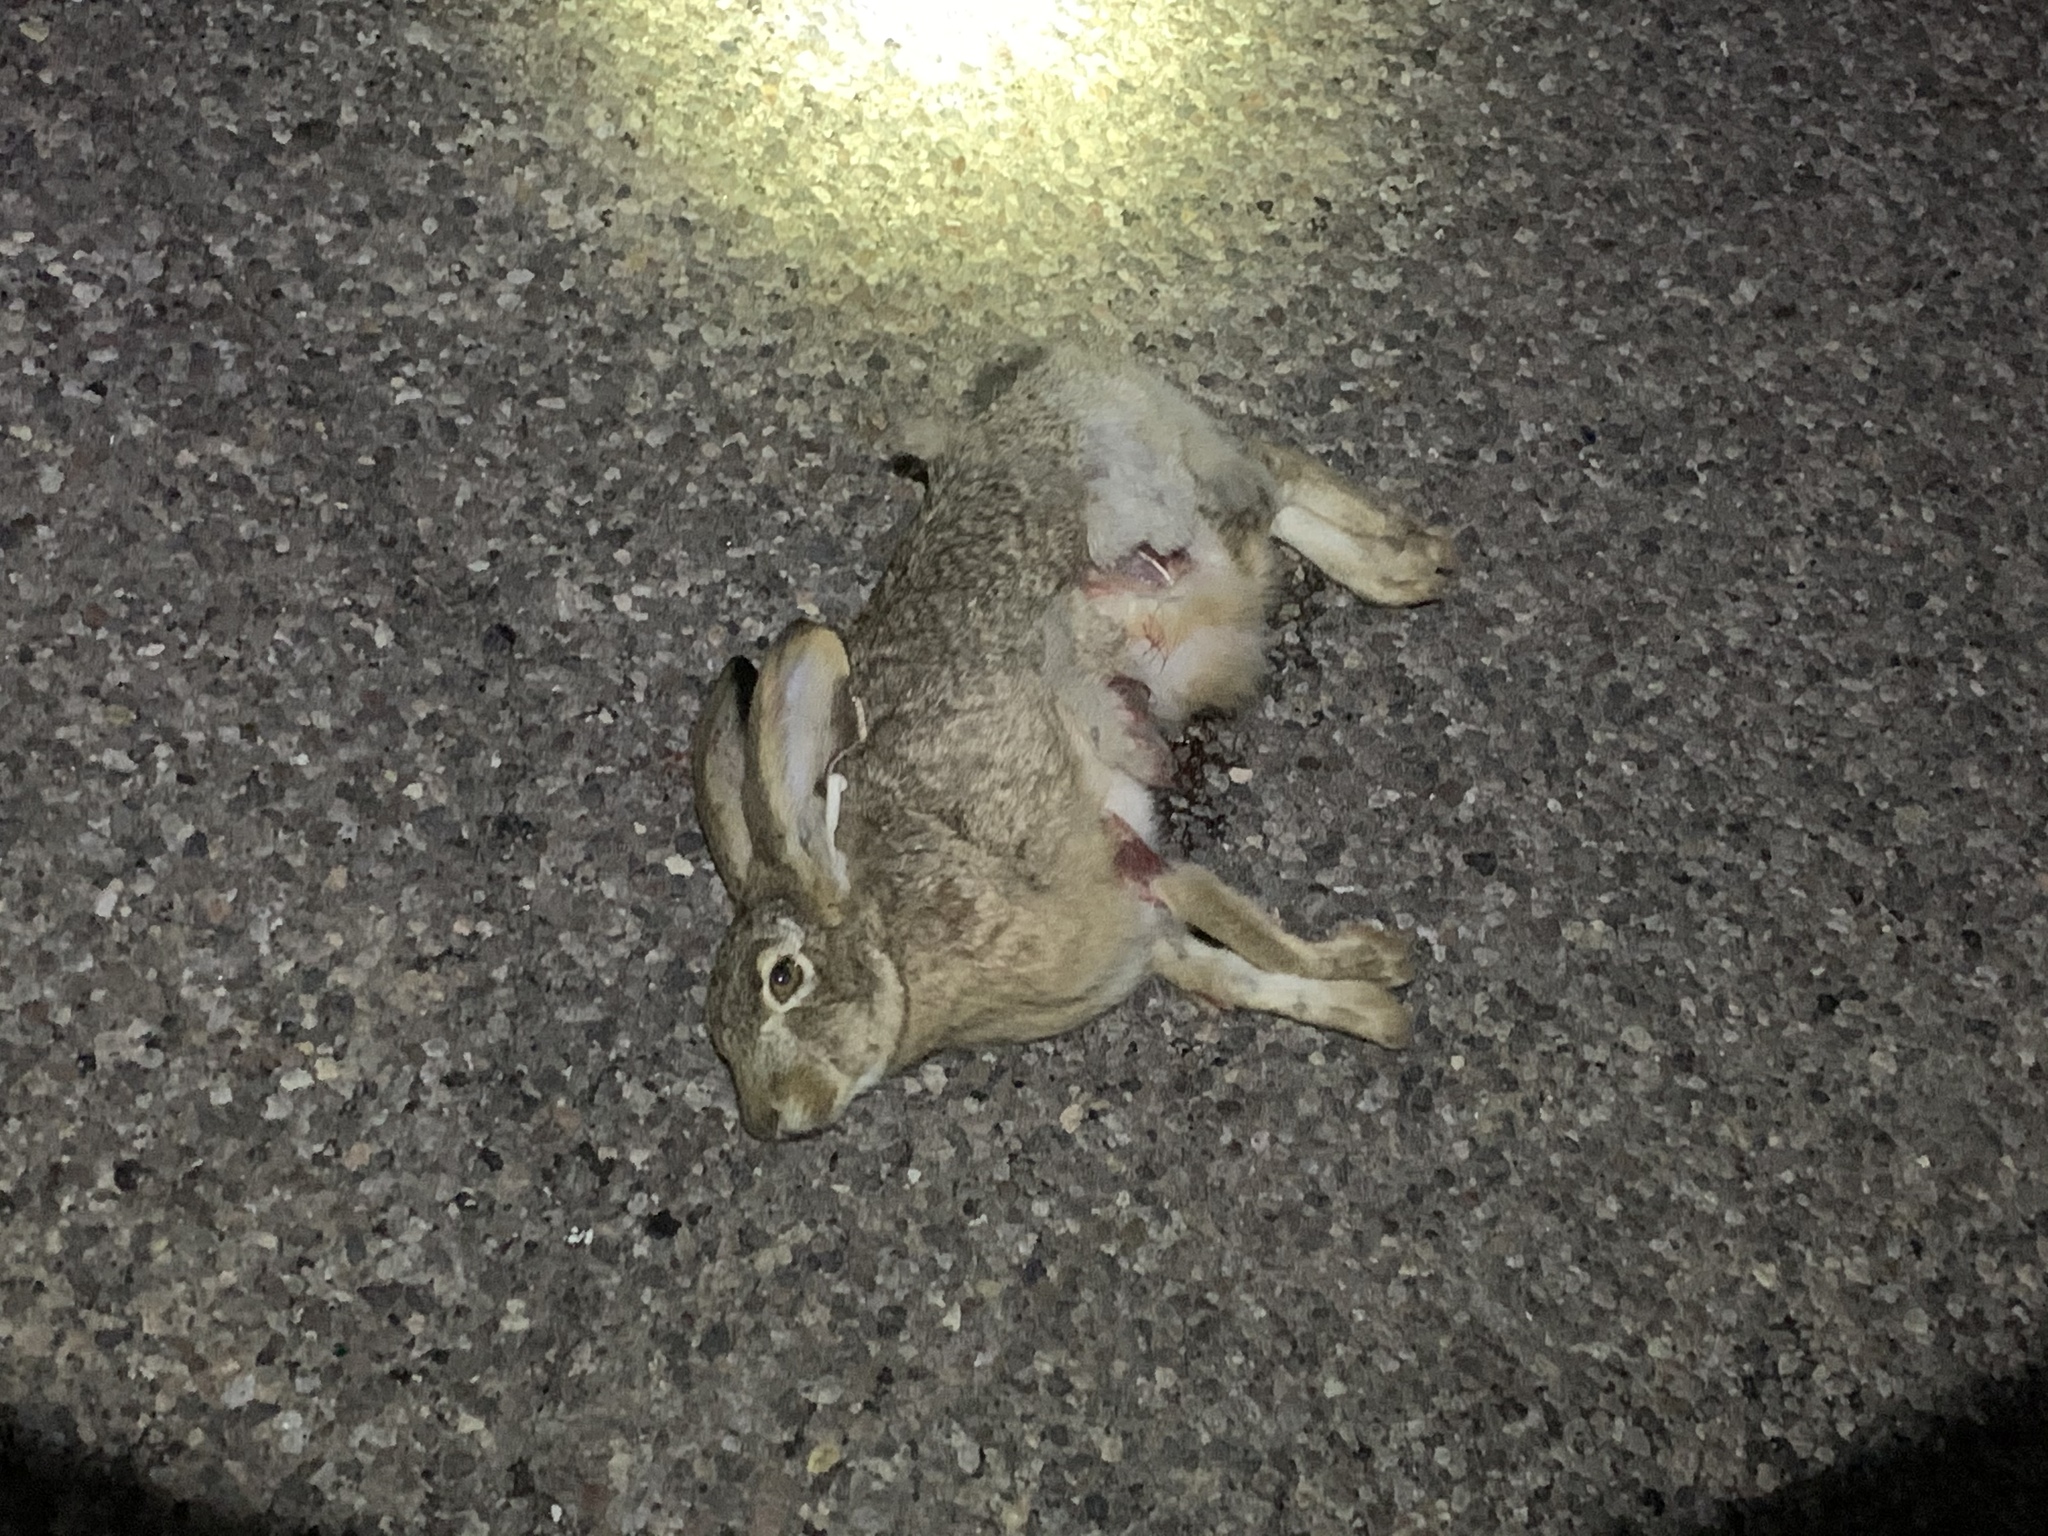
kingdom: Animalia
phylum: Chordata
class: Mammalia
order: Lagomorpha
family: Leporidae
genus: Lepus
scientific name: Lepus californicus
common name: Black-tailed jackrabbit
